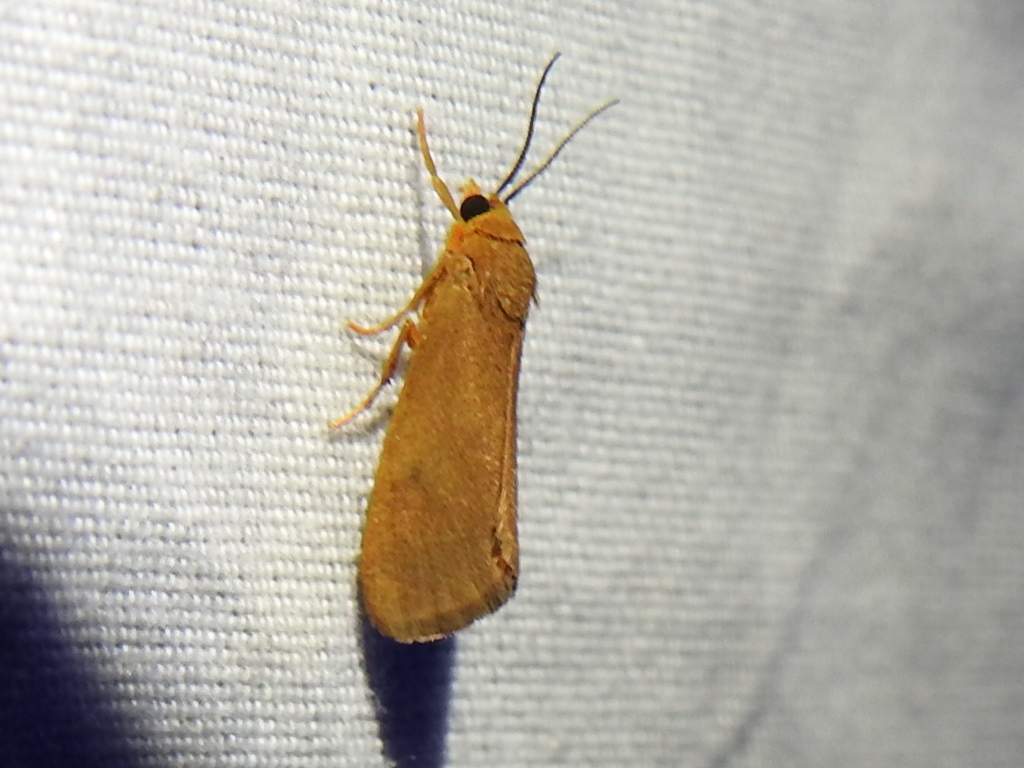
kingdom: Animalia
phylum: Arthropoda
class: Insecta
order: Lepidoptera
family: Erebidae
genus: Virbia
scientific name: Virbia aurantiaca
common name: Orange virbia moth
